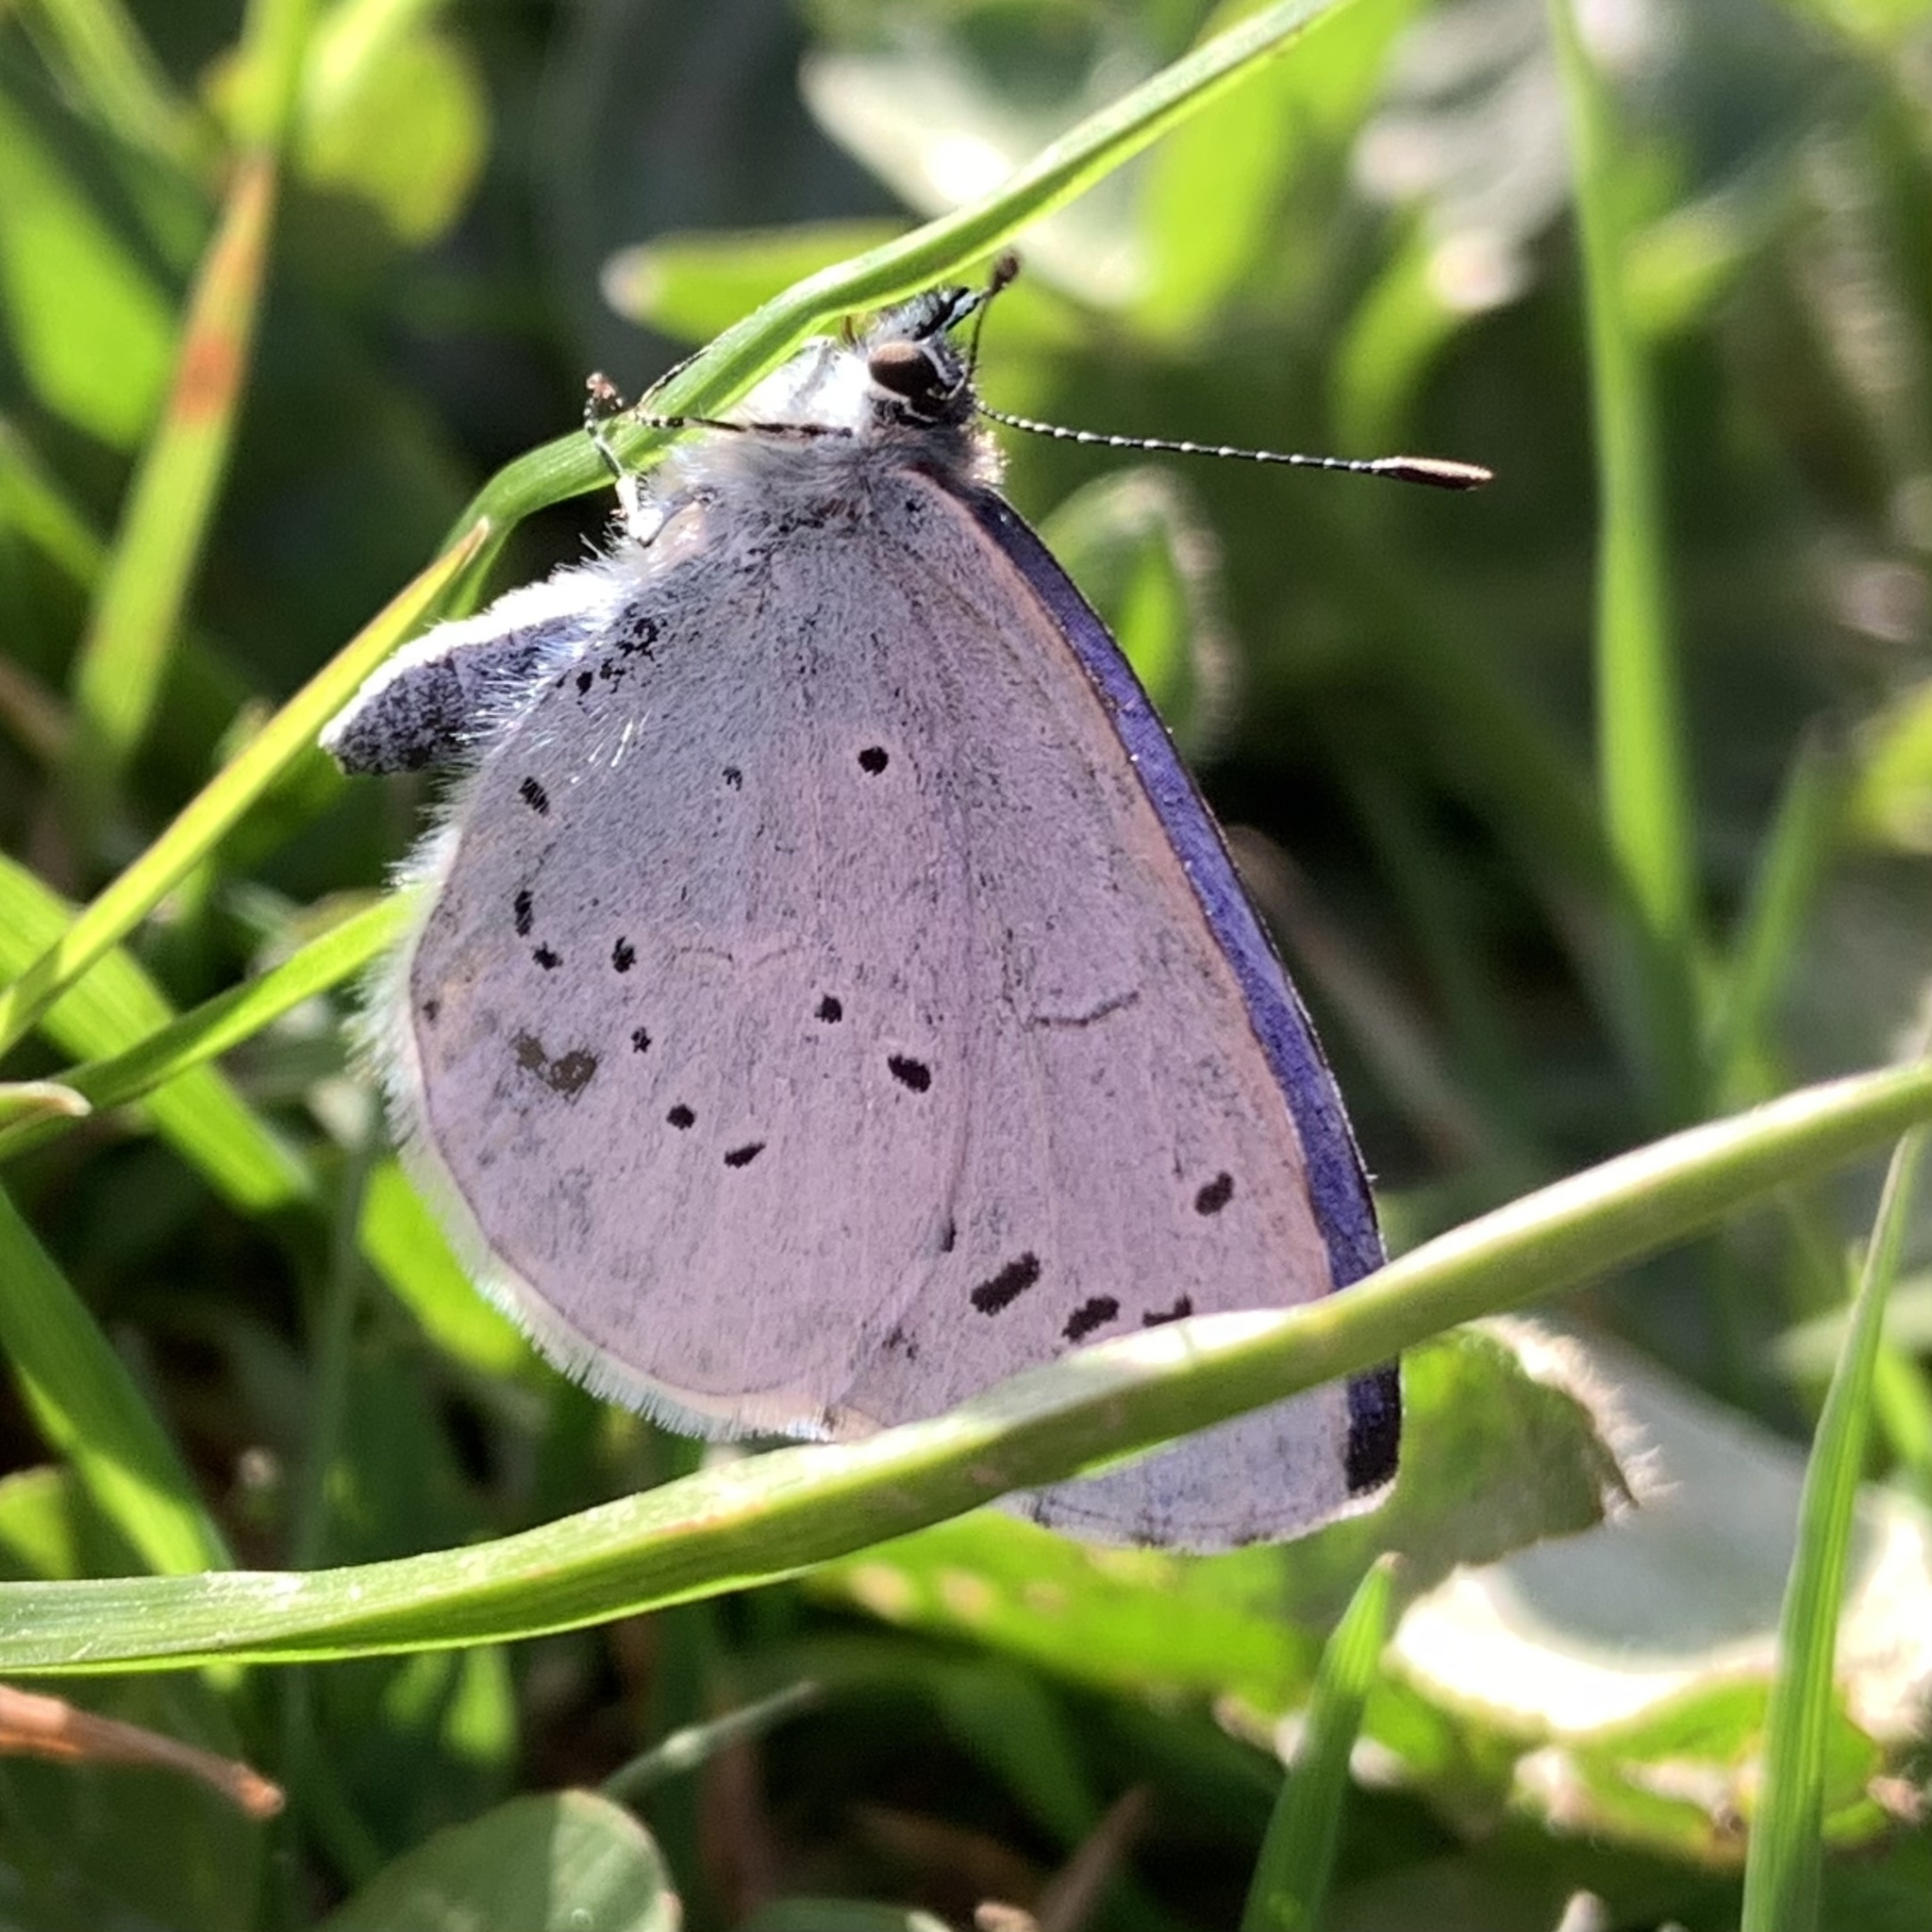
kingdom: Animalia
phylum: Arthropoda
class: Insecta
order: Lepidoptera
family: Lycaenidae
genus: Celastrina
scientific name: Celastrina argiolus
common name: Holly blue
